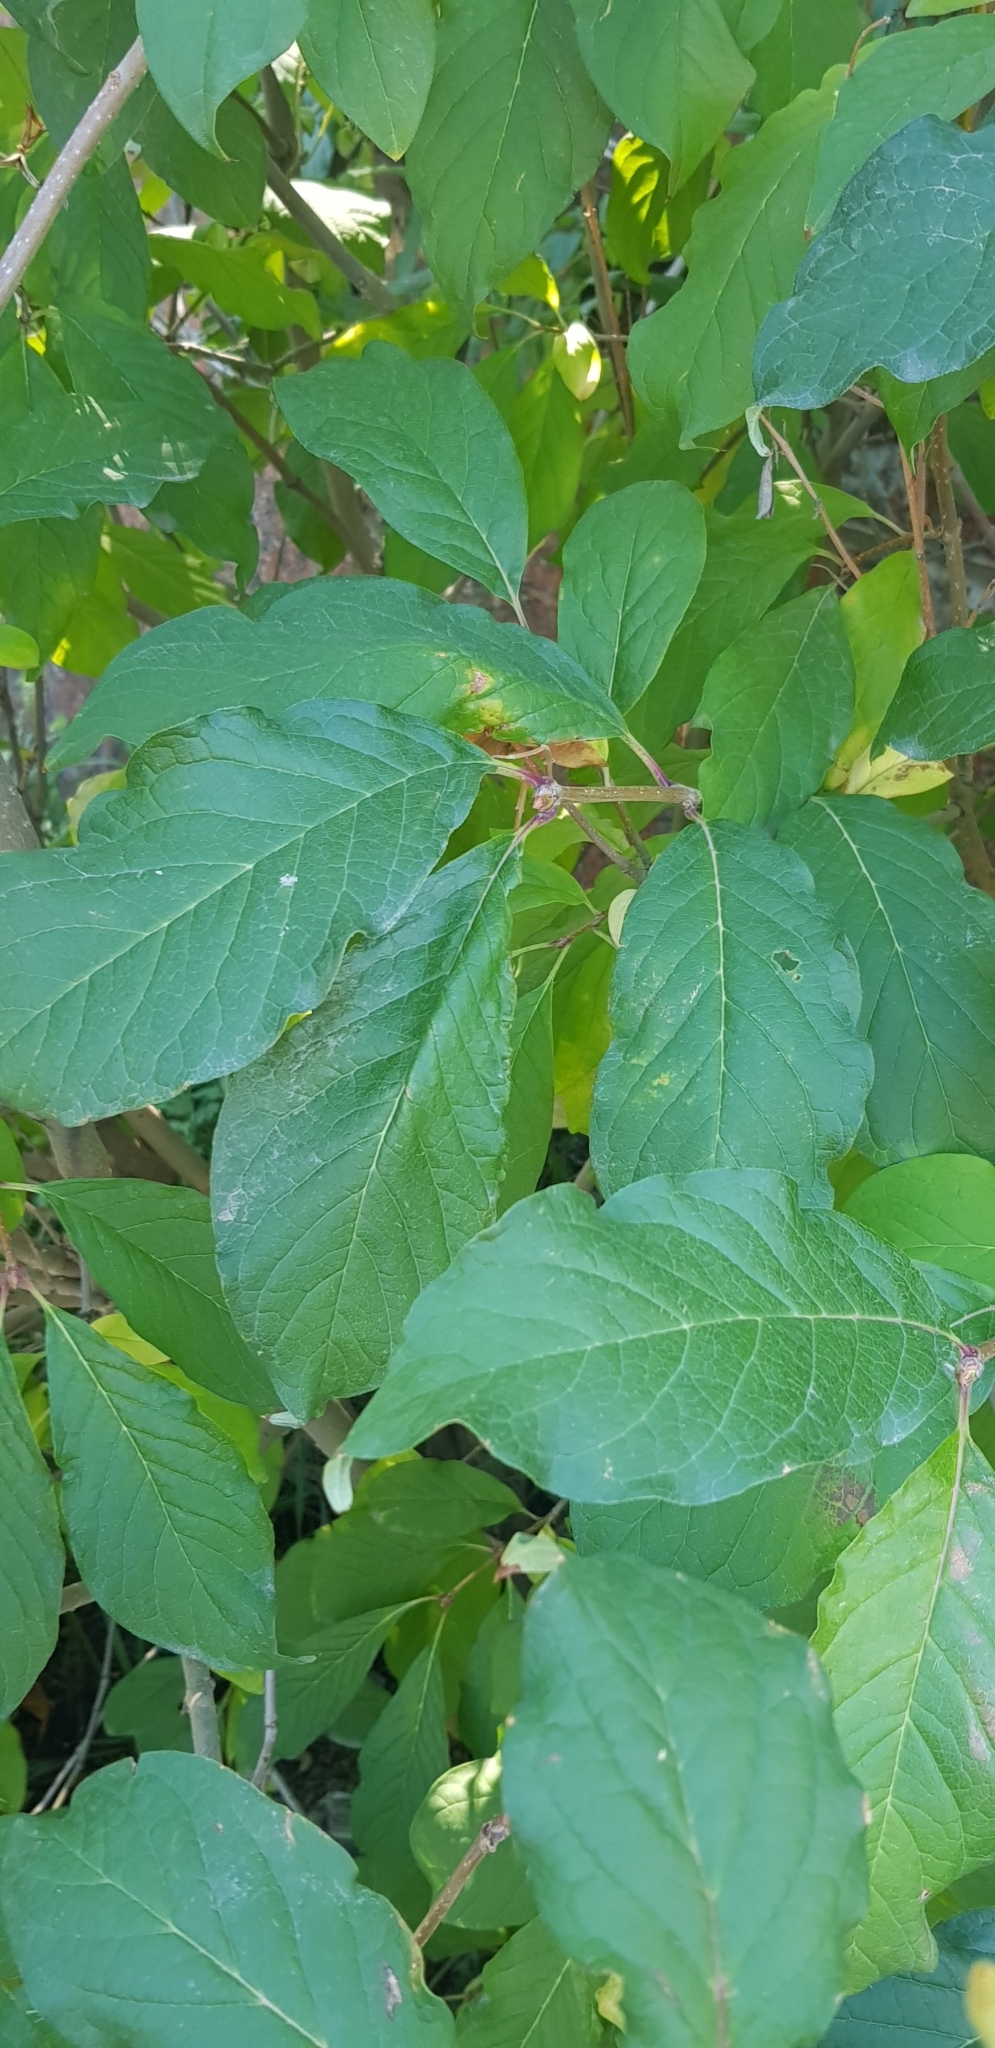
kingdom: Plantae
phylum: Tracheophyta
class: Magnoliopsida
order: Lamiales
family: Oleaceae
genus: Syringa
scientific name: Syringa josikaea
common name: Hungarian lilac
